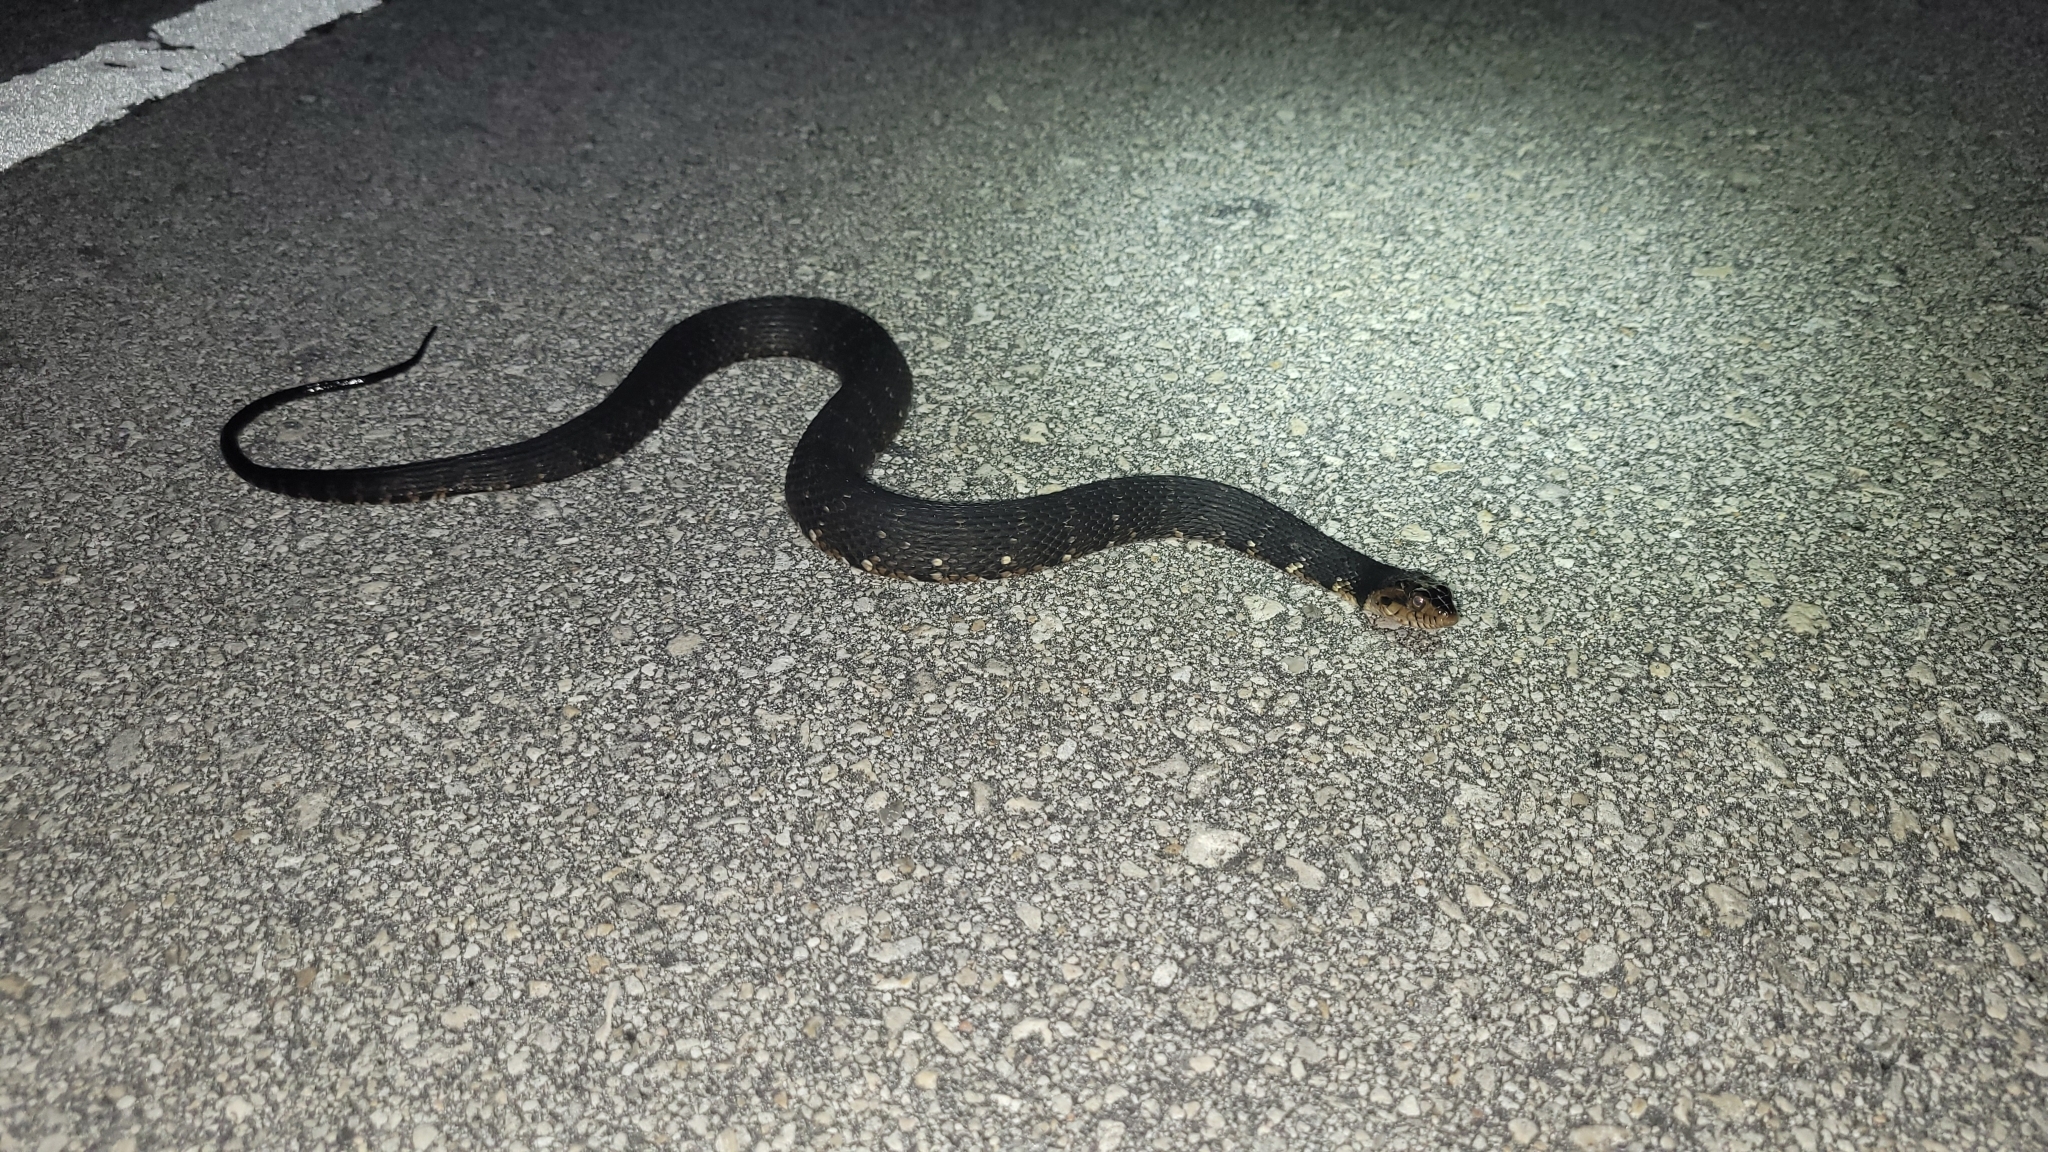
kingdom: Animalia
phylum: Chordata
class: Squamata
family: Colubridae
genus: Nerodia
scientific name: Nerodia fasciata
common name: Southern water snake
